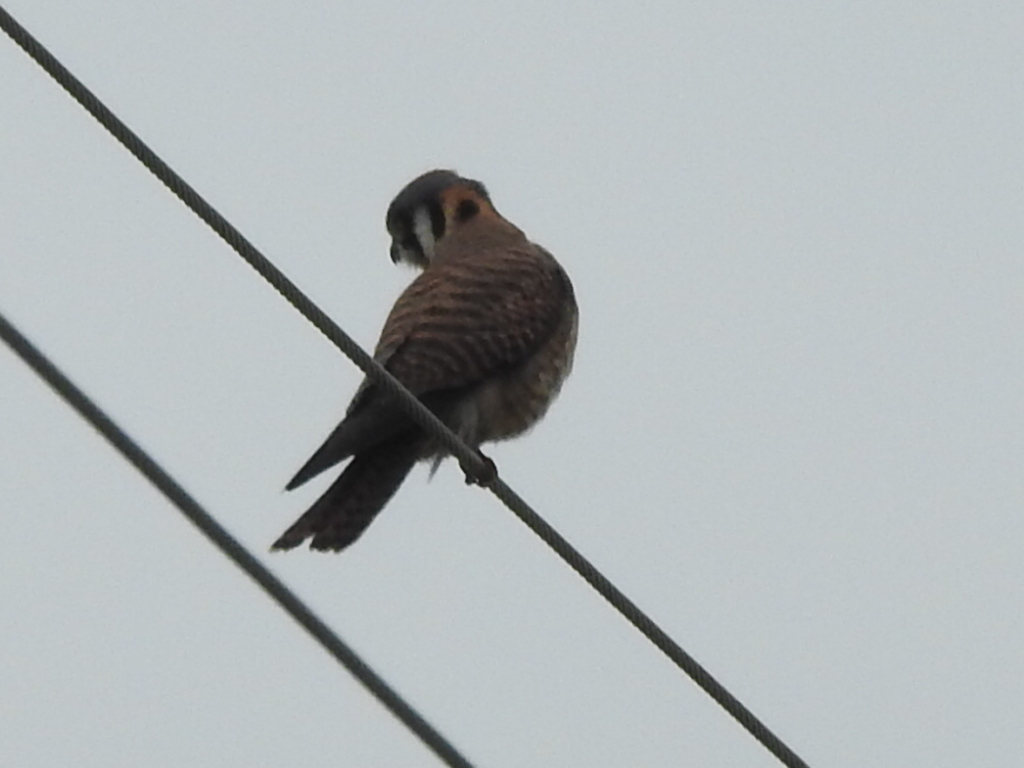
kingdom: Animalia
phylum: Chordata
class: Aves
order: Falconiformes
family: Falconidae
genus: Falco
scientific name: Falco sparverius
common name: American kestrel
